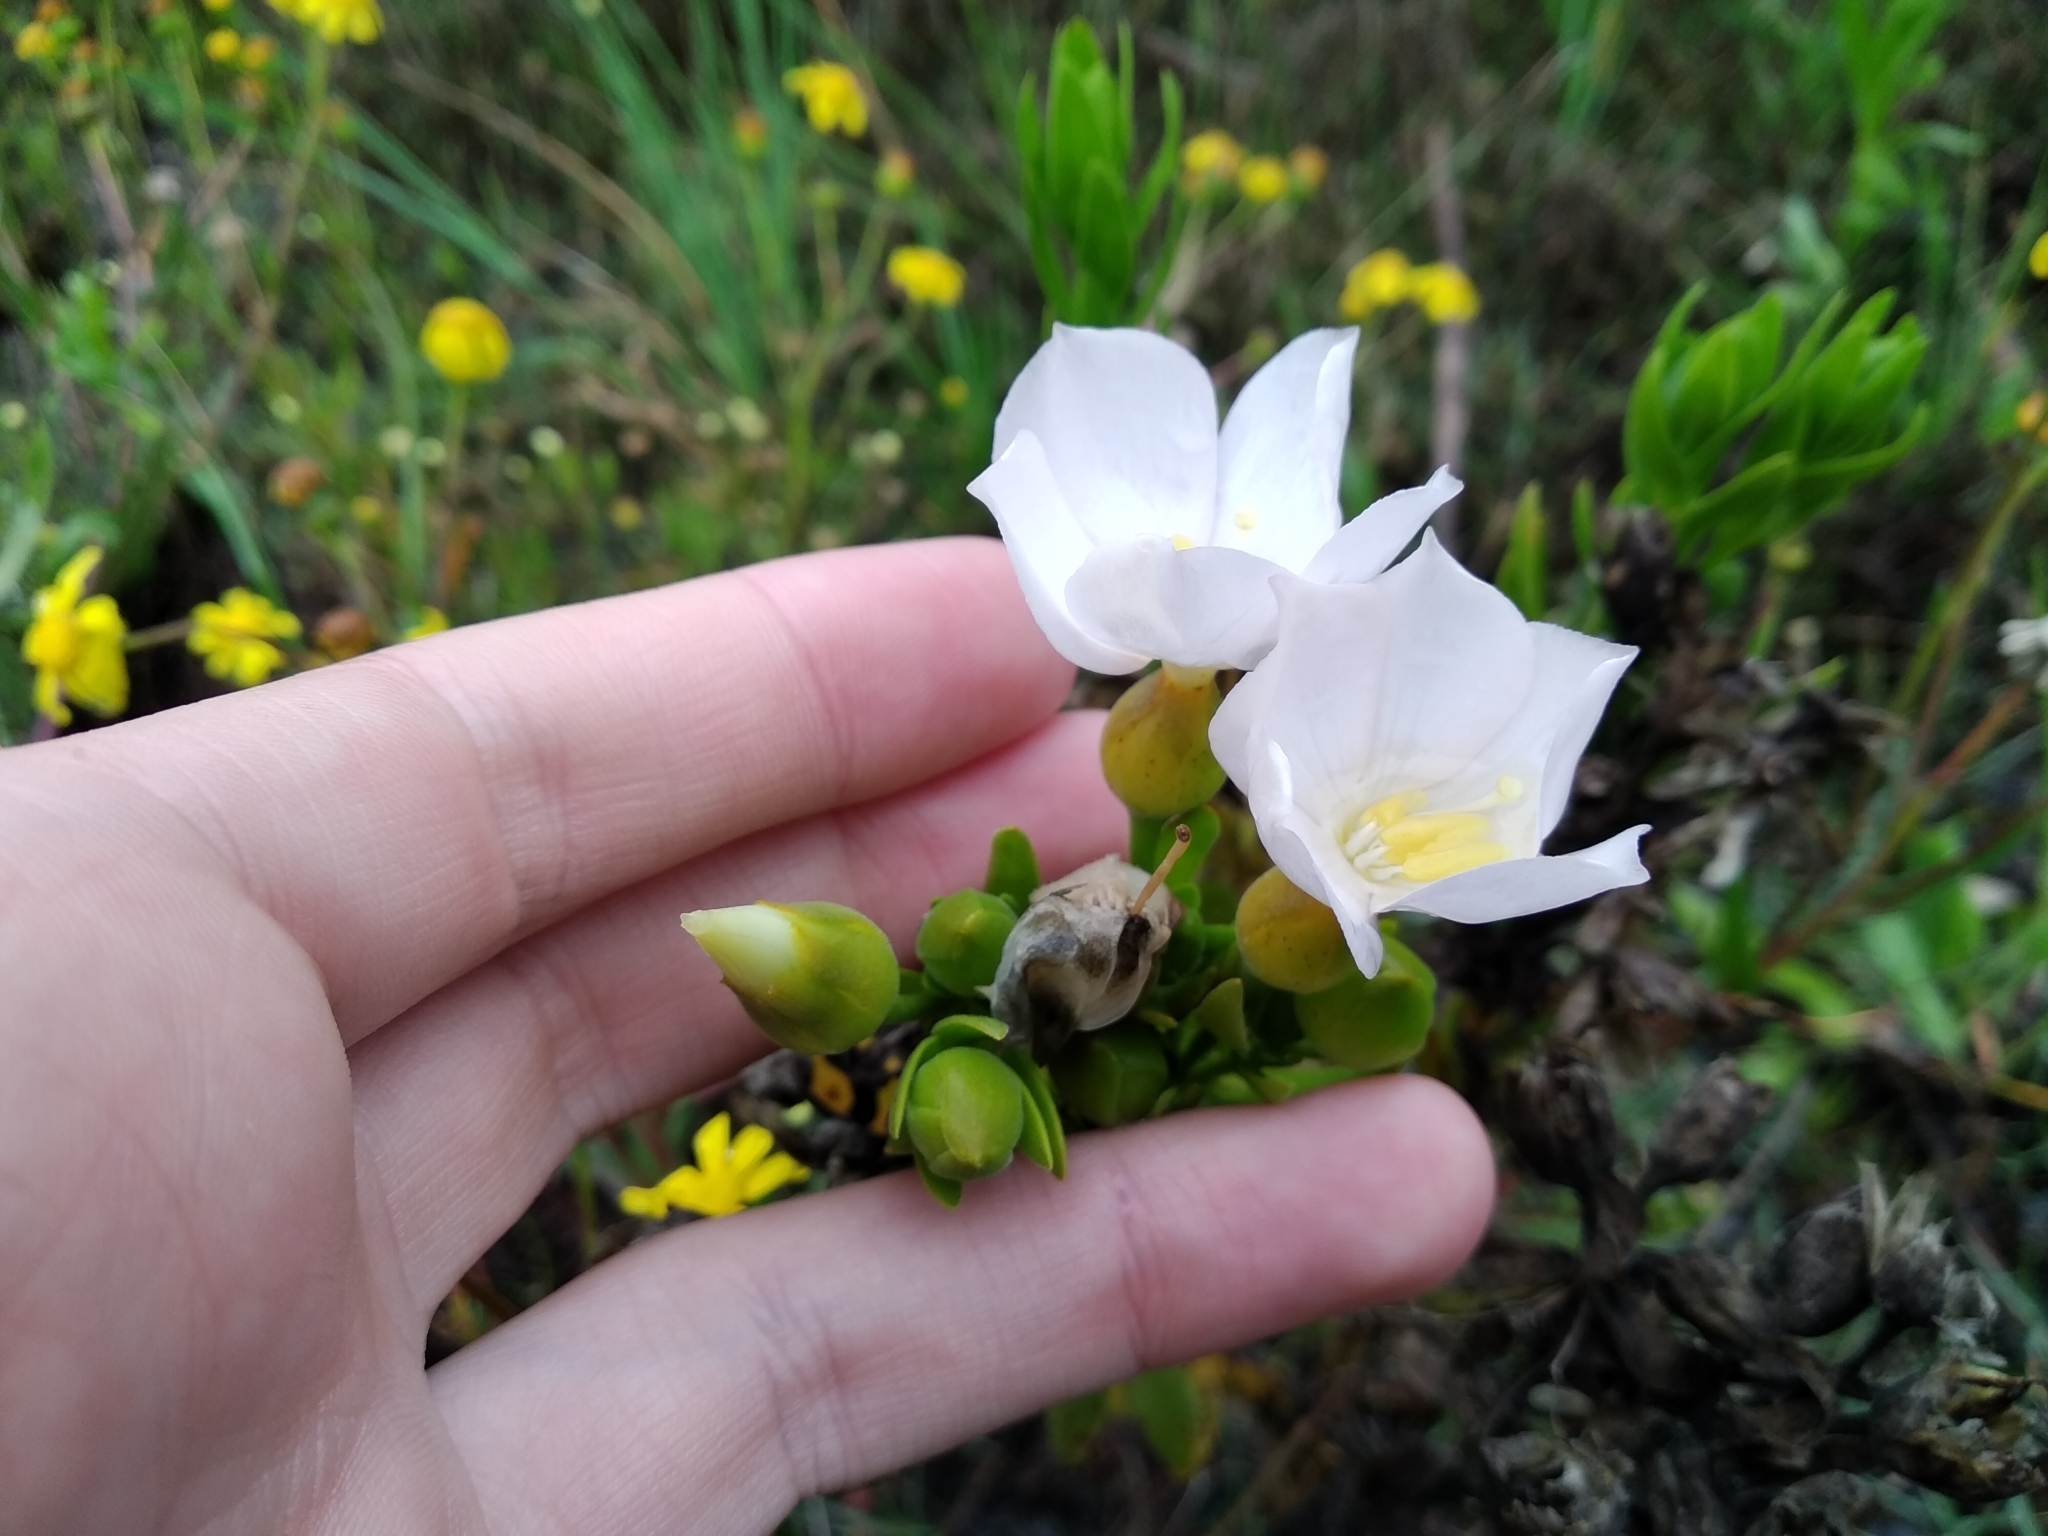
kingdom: Plantae
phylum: Tracheophyta
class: Magnoliopsida
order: Gentianales
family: Gentianaceae
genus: Orphium
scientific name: Orphium frutescens
